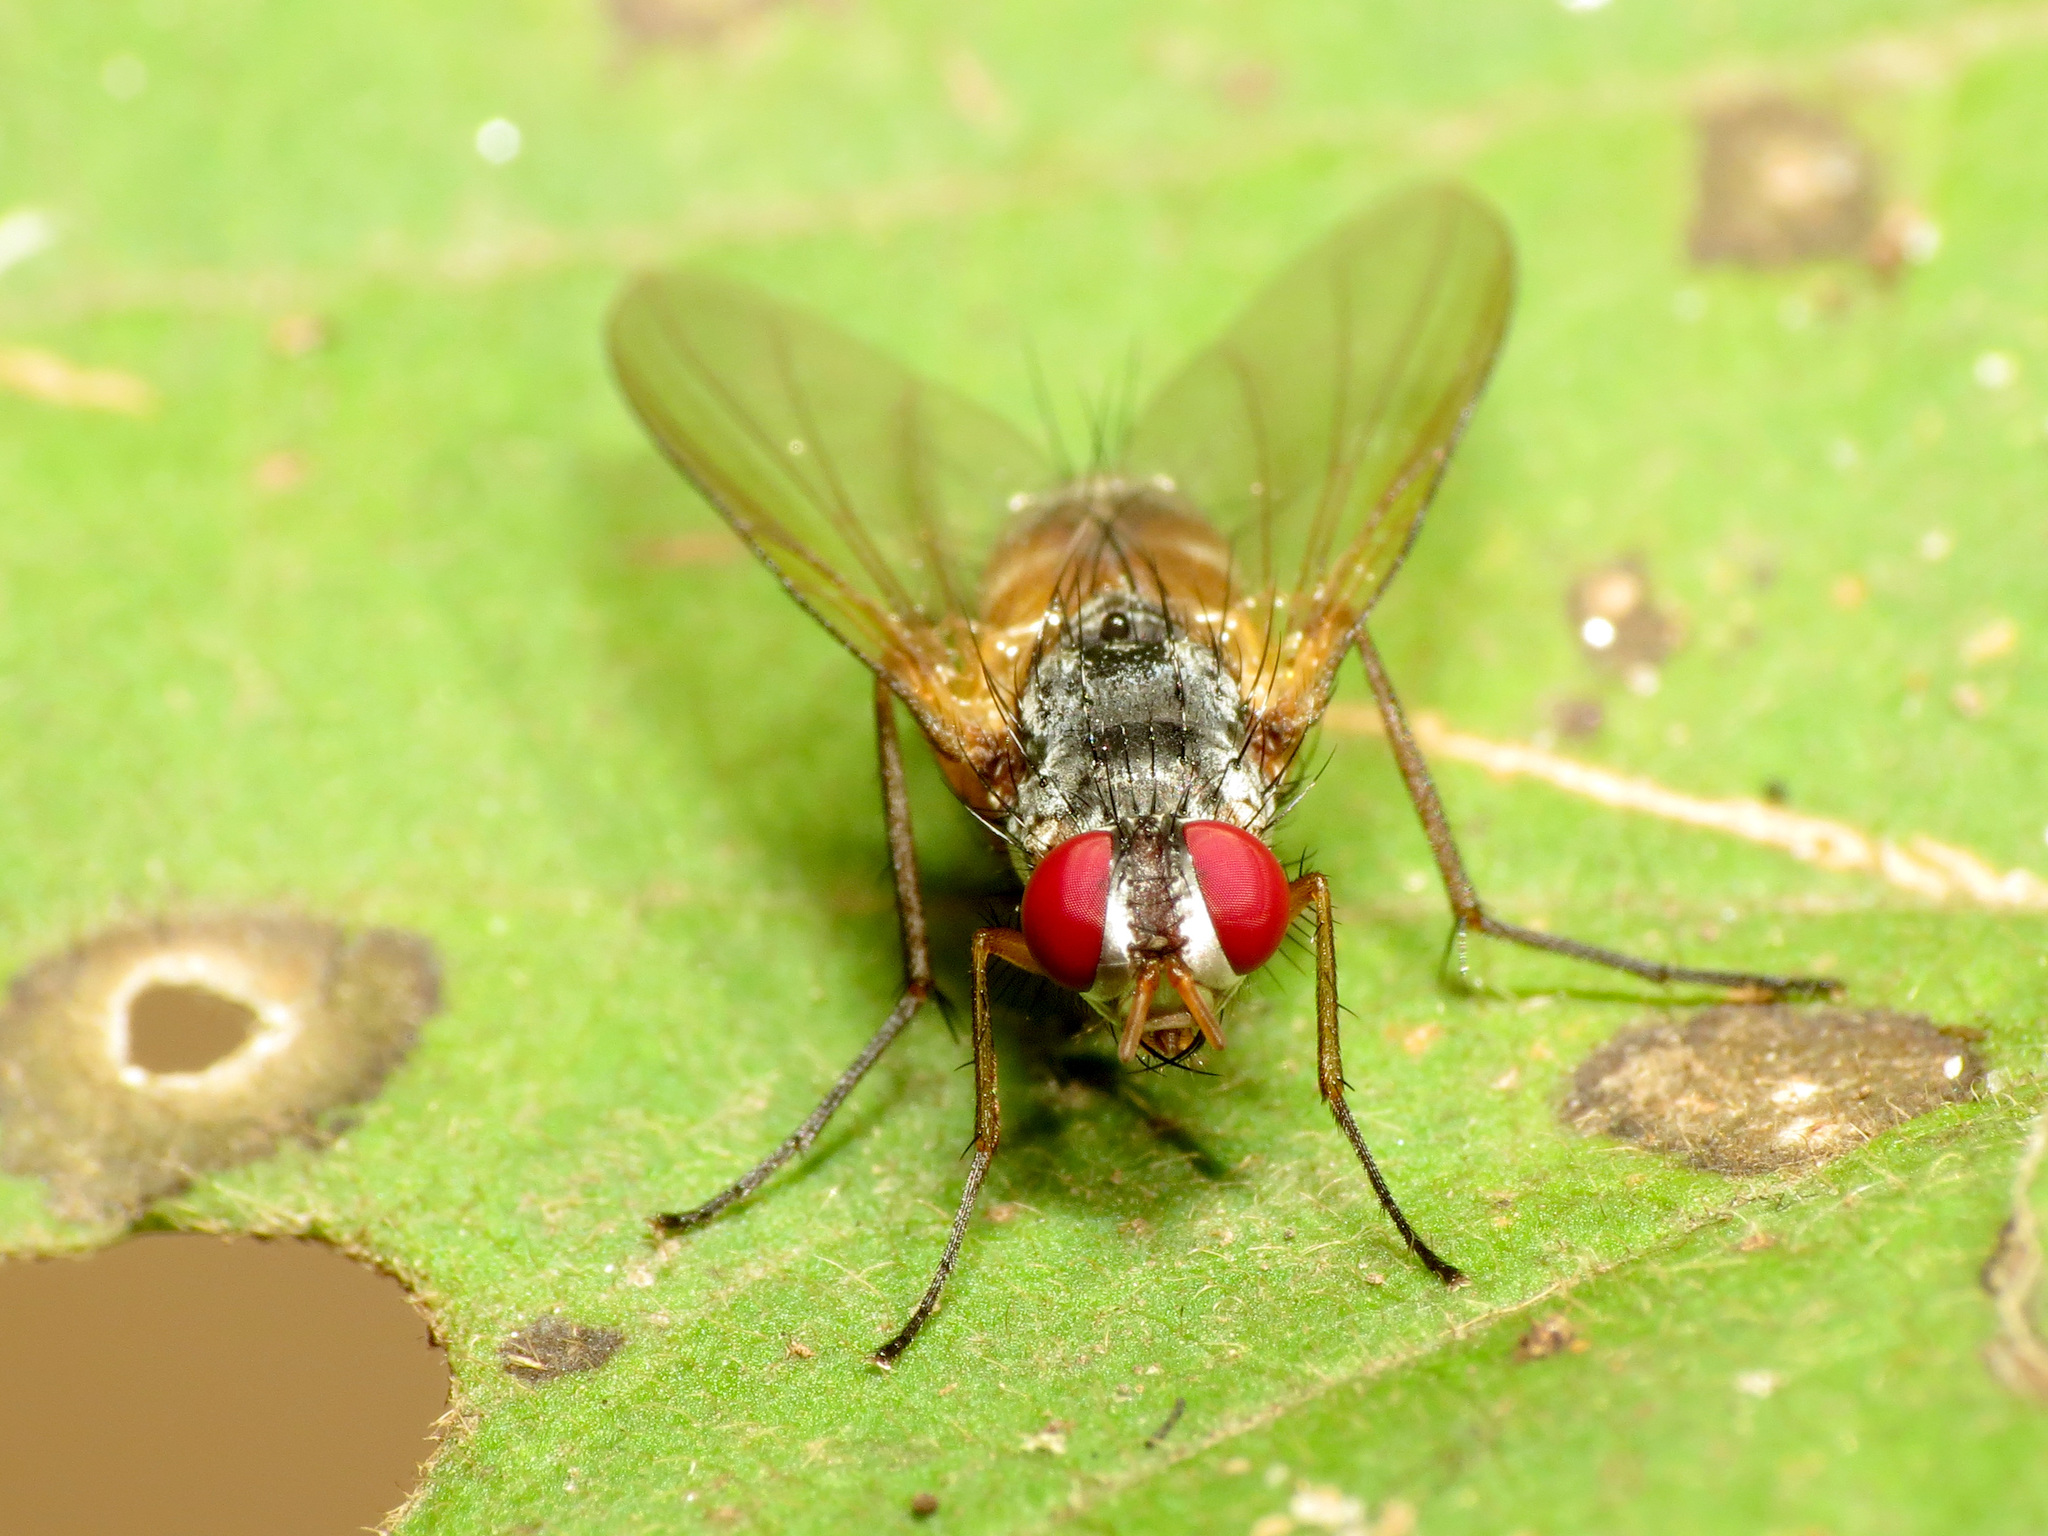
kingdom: Animalia
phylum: Arthropoda
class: Insecta
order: Diptera
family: Tachinidae
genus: Cholomyia
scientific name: Cholomyia inaequipes
